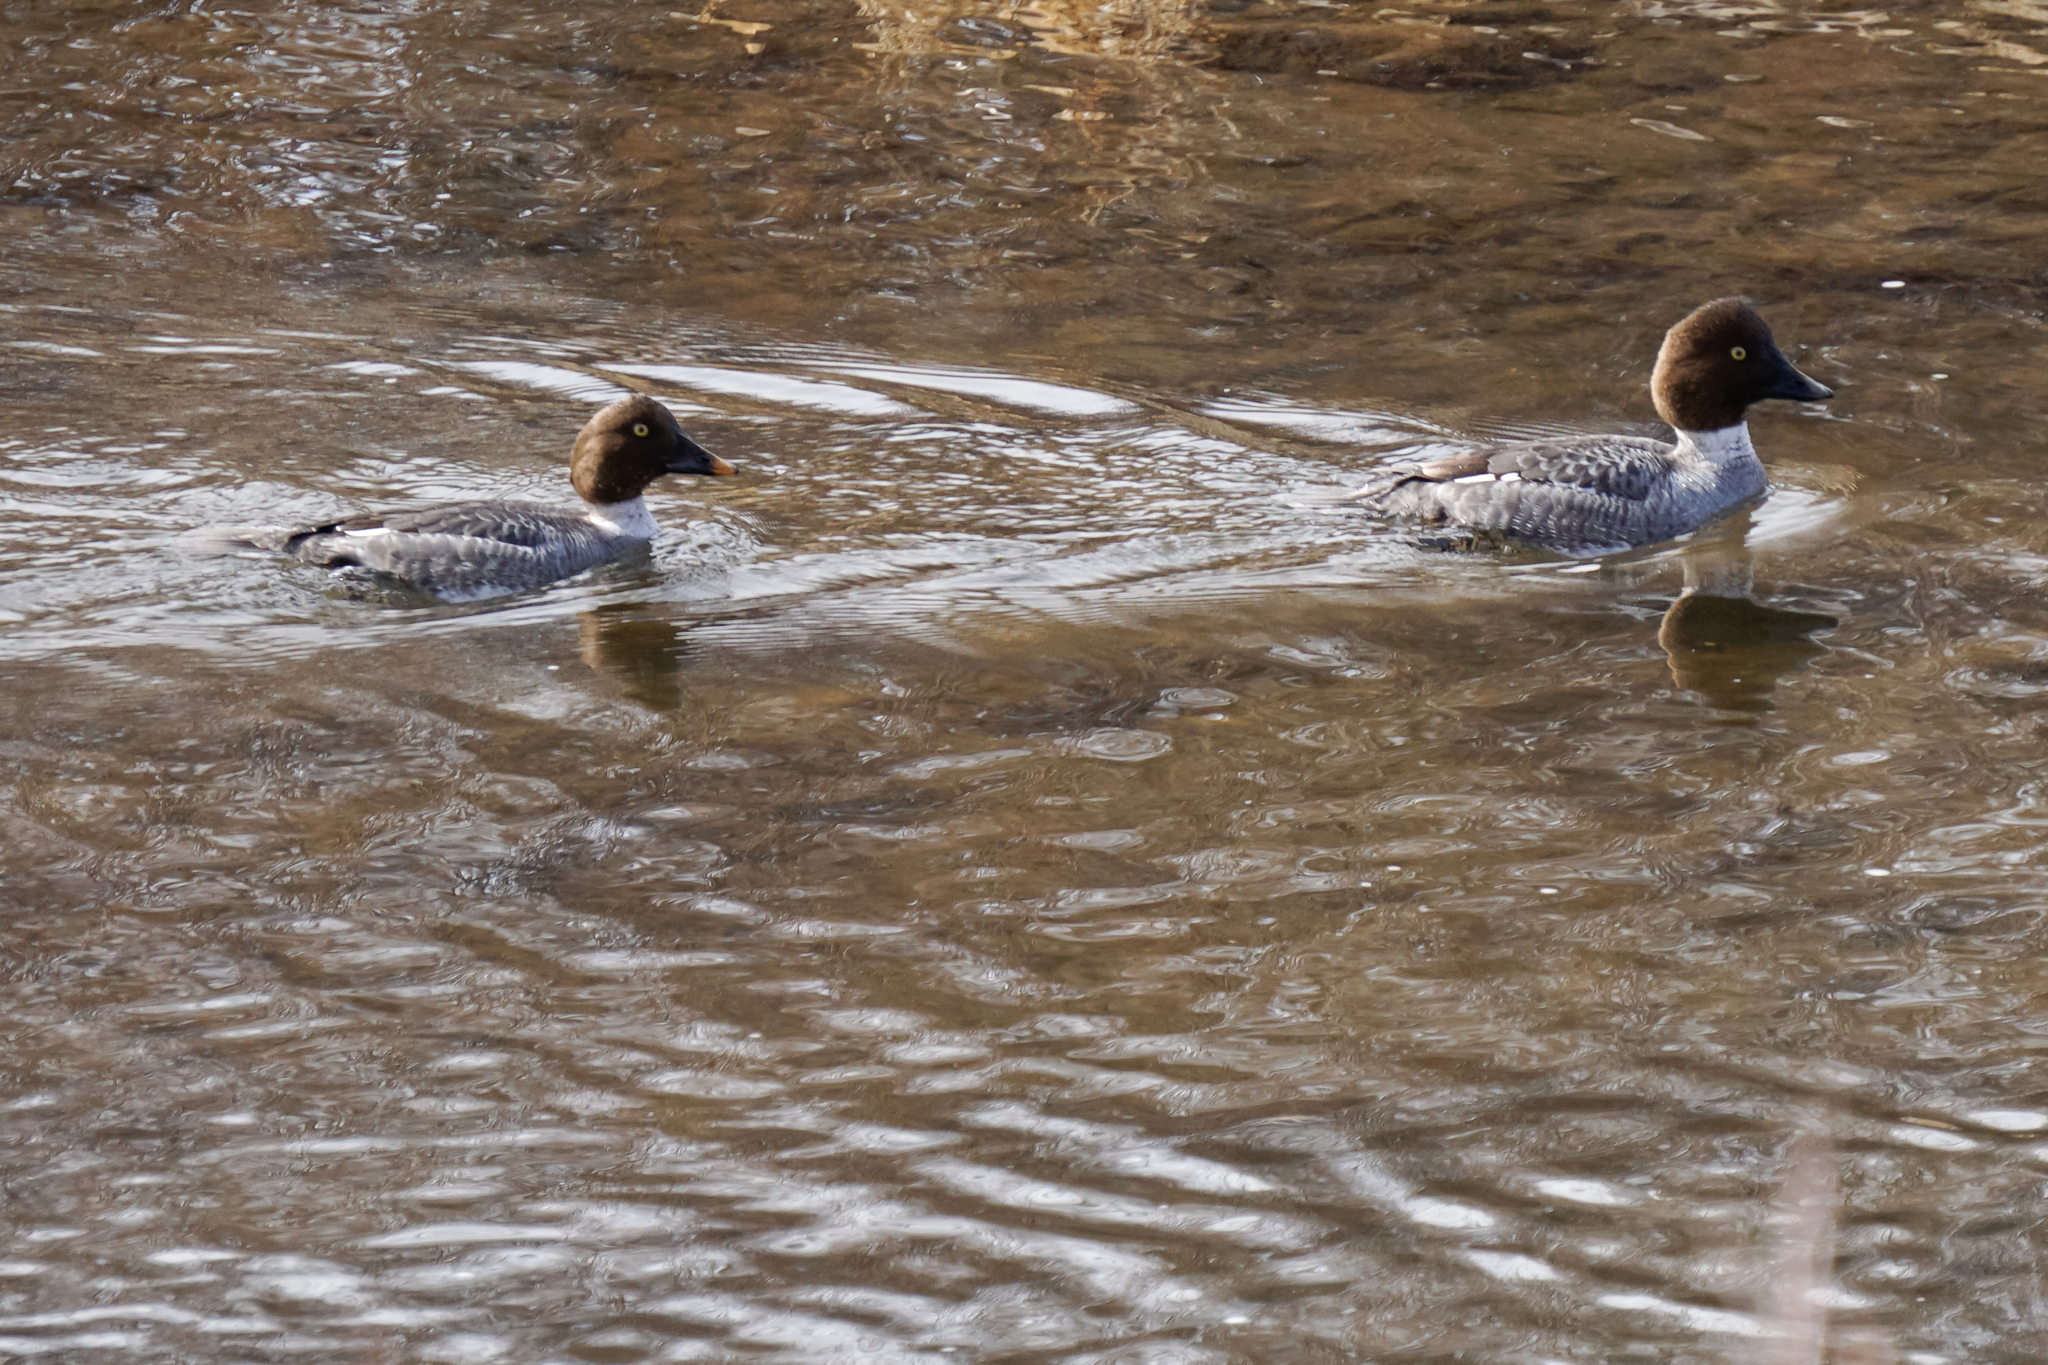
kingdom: Animalia
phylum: Chordata
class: Aves
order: Anseriformes
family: Anatidae
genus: Bucephala
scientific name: Bucephala clangula
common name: Common goldeneye
